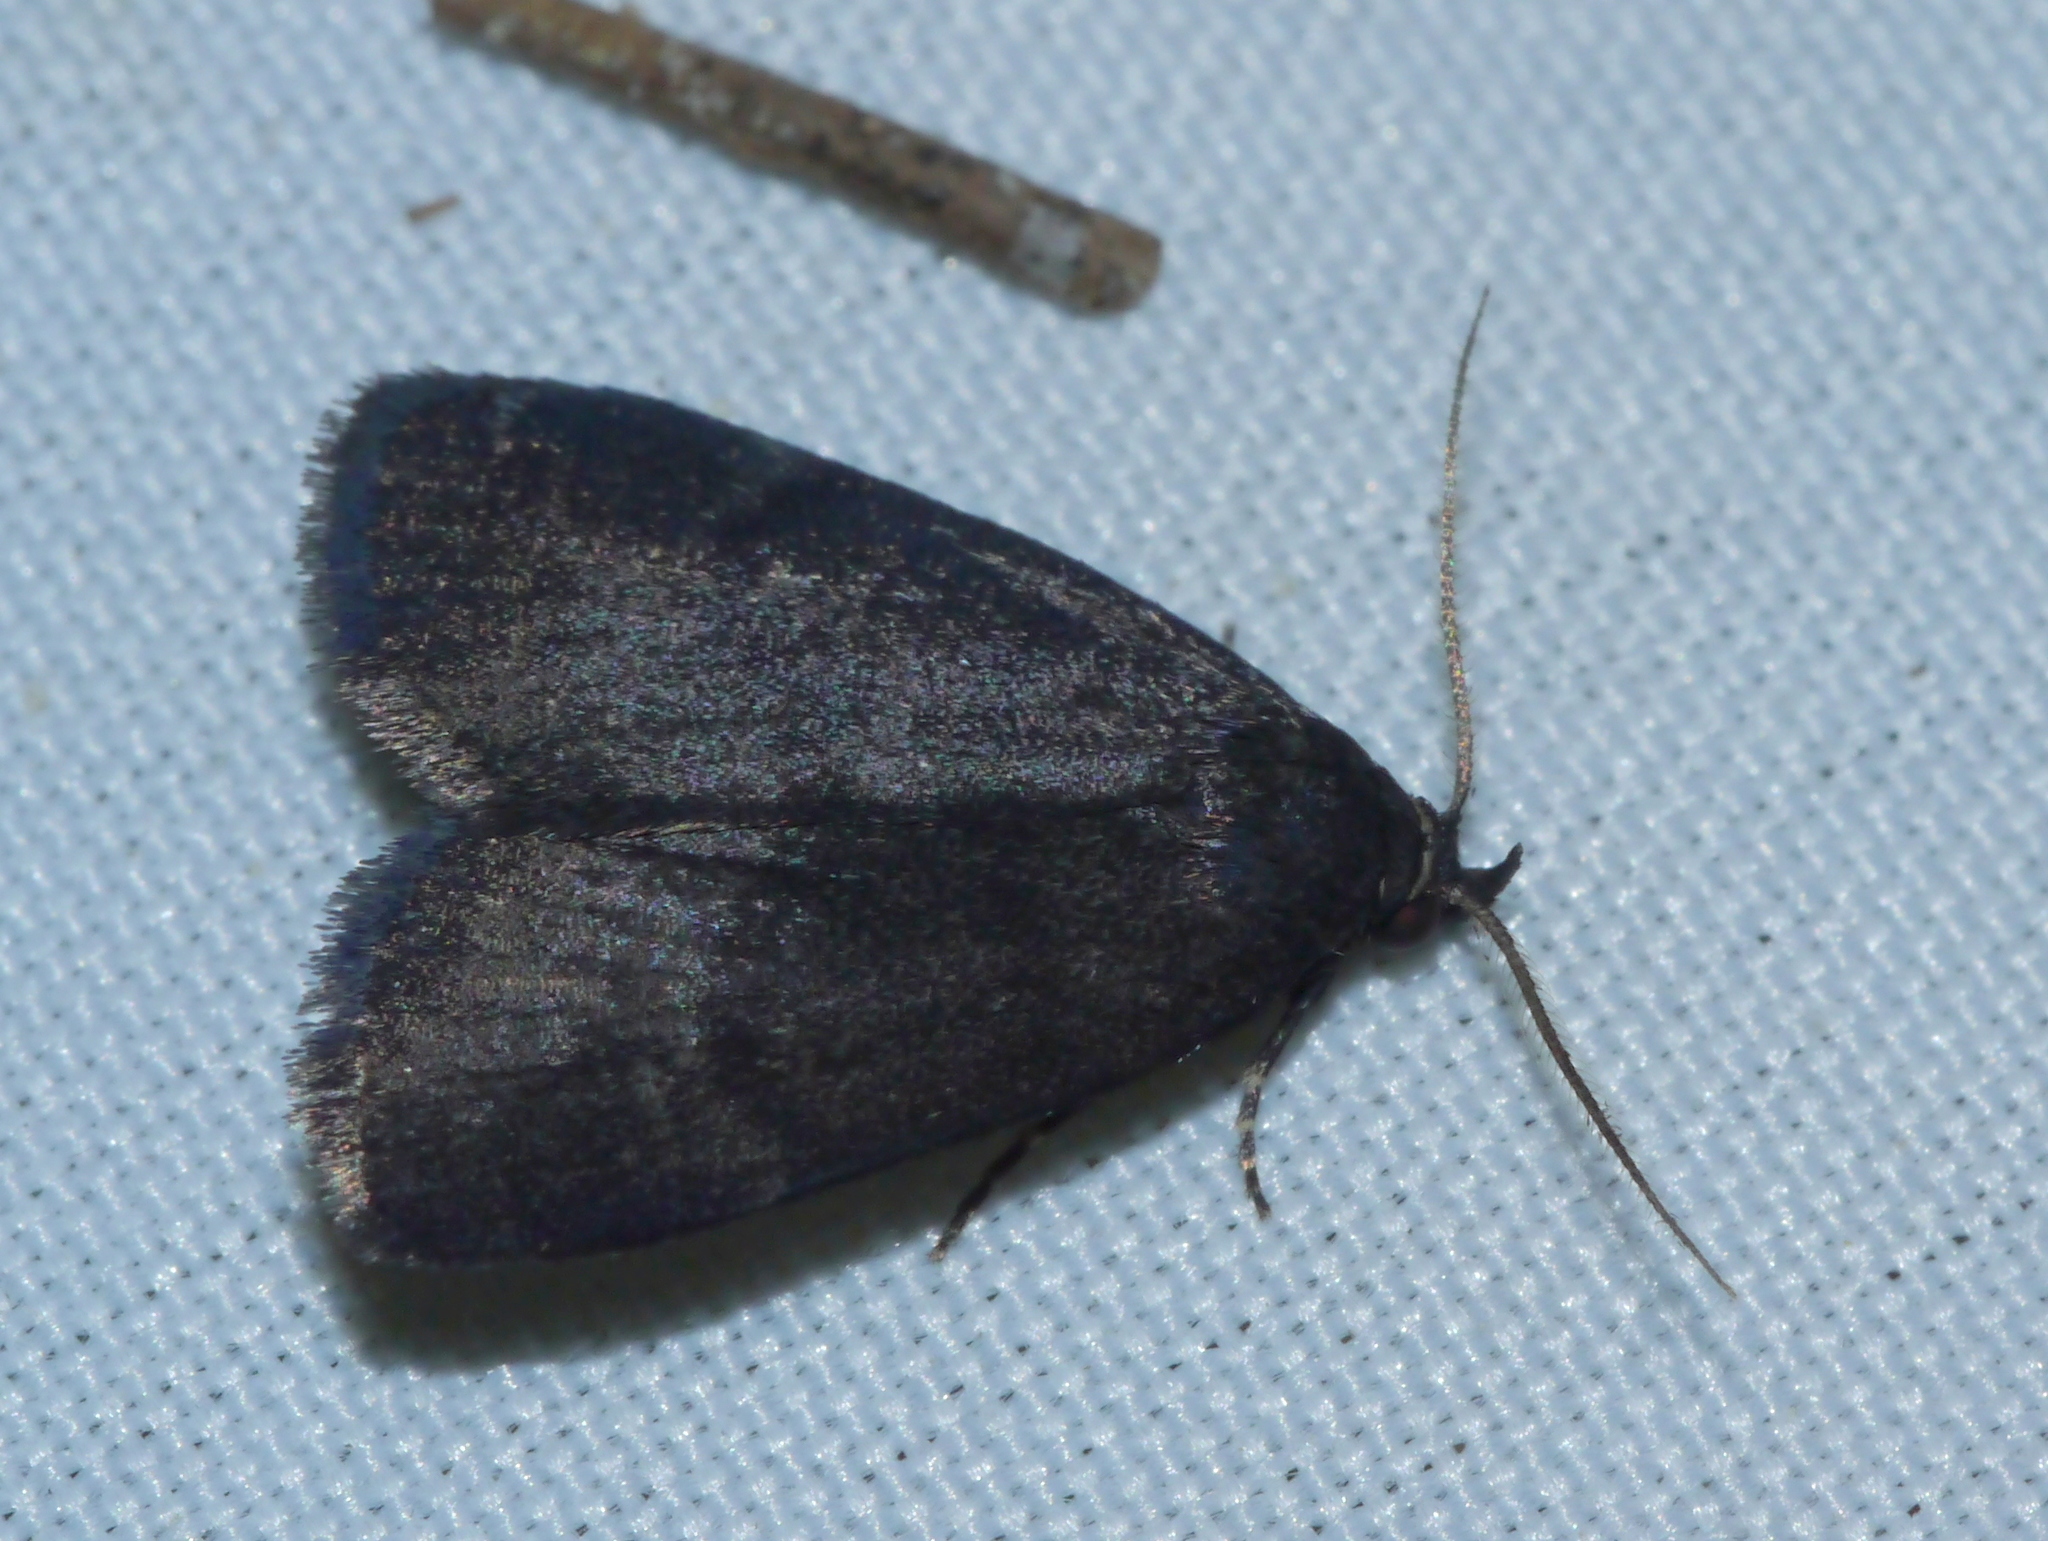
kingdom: Animalia
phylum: Arthropoda
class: Insecta
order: Lepidoptera
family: Erebidae
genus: Idia
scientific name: Idia rotundalis
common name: Rotund idia moth
